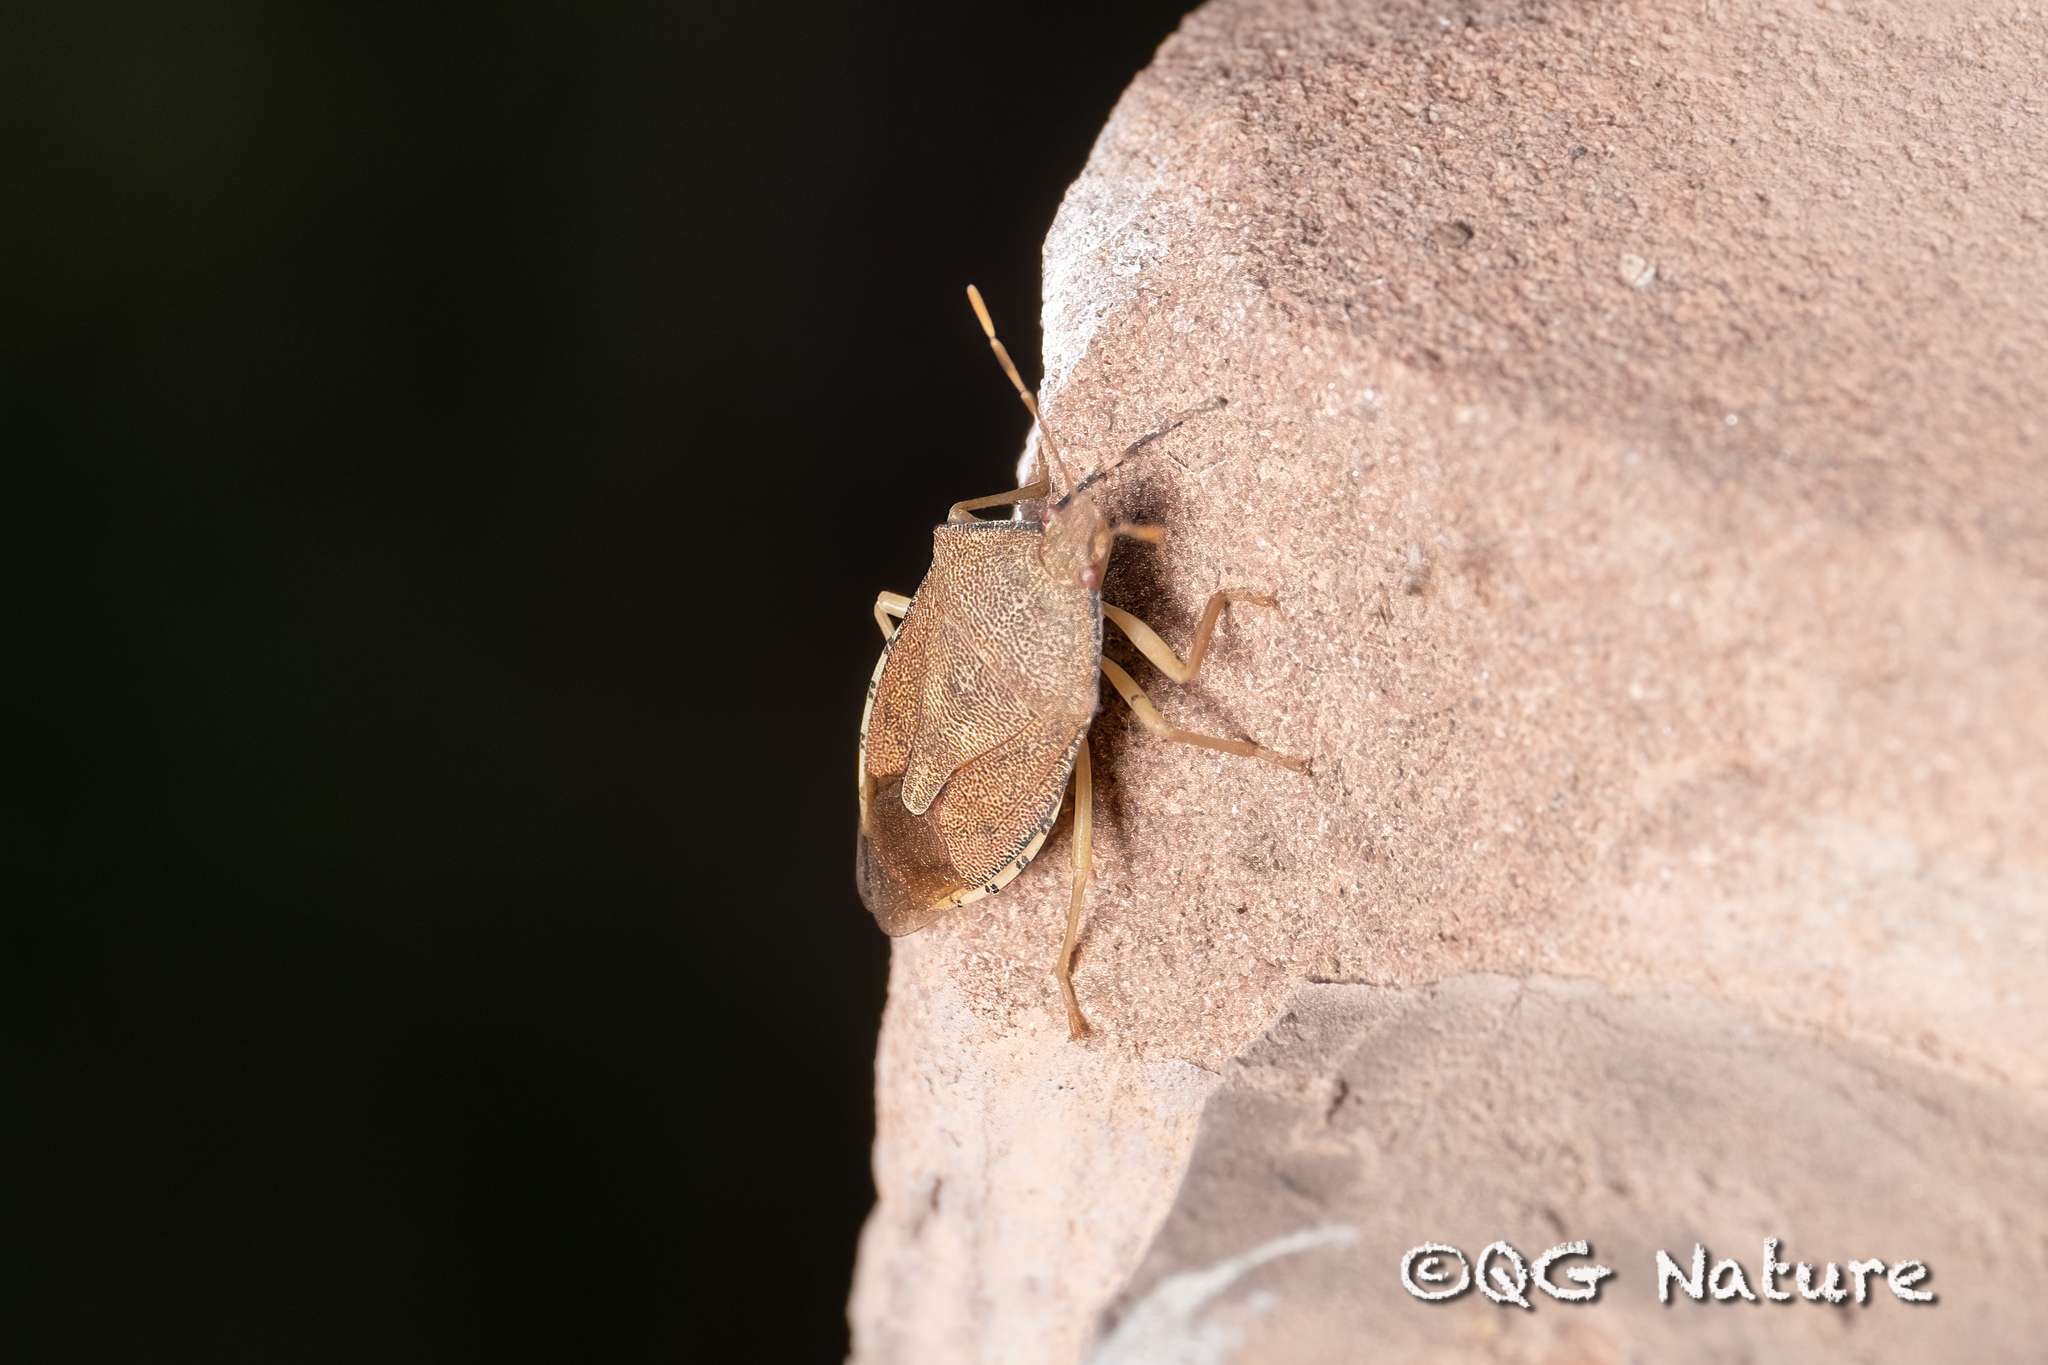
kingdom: Animalia
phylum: Arthropoda
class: Insecta
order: Hemiptera
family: Pentatomidae
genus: Arma
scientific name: Arma koreana
